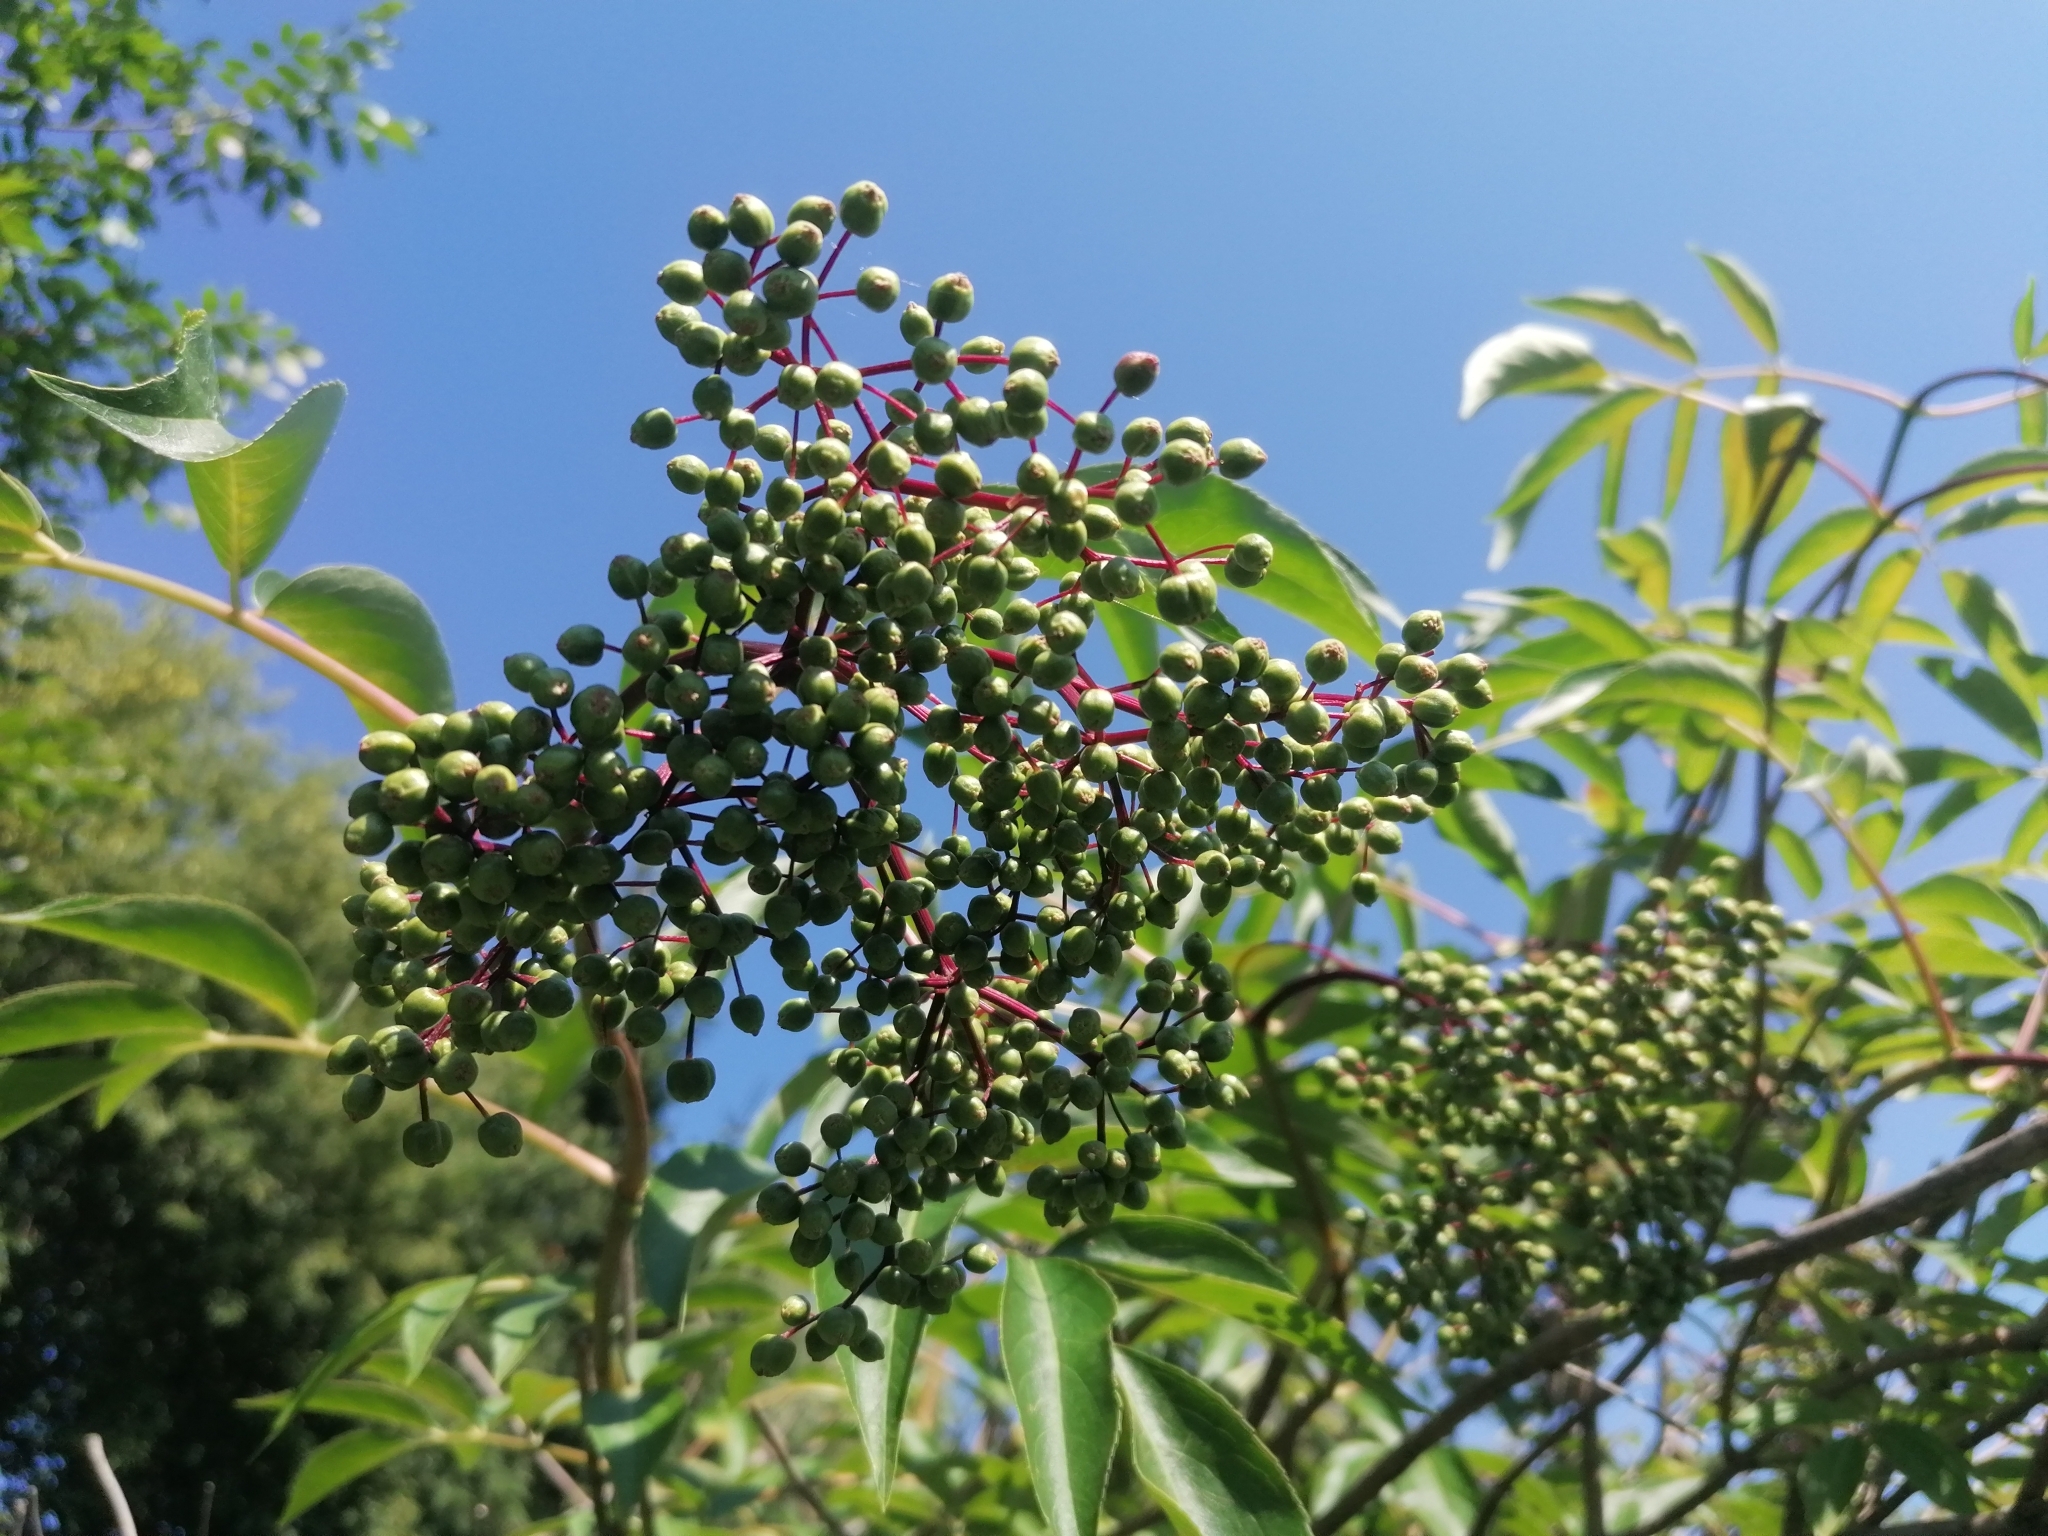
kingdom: Plantae
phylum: Tracheophyta
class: Magnoliopsida
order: Dipsacales
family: Viburnaceae
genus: Sambucus
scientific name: Sambucus canadensis
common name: American elder
